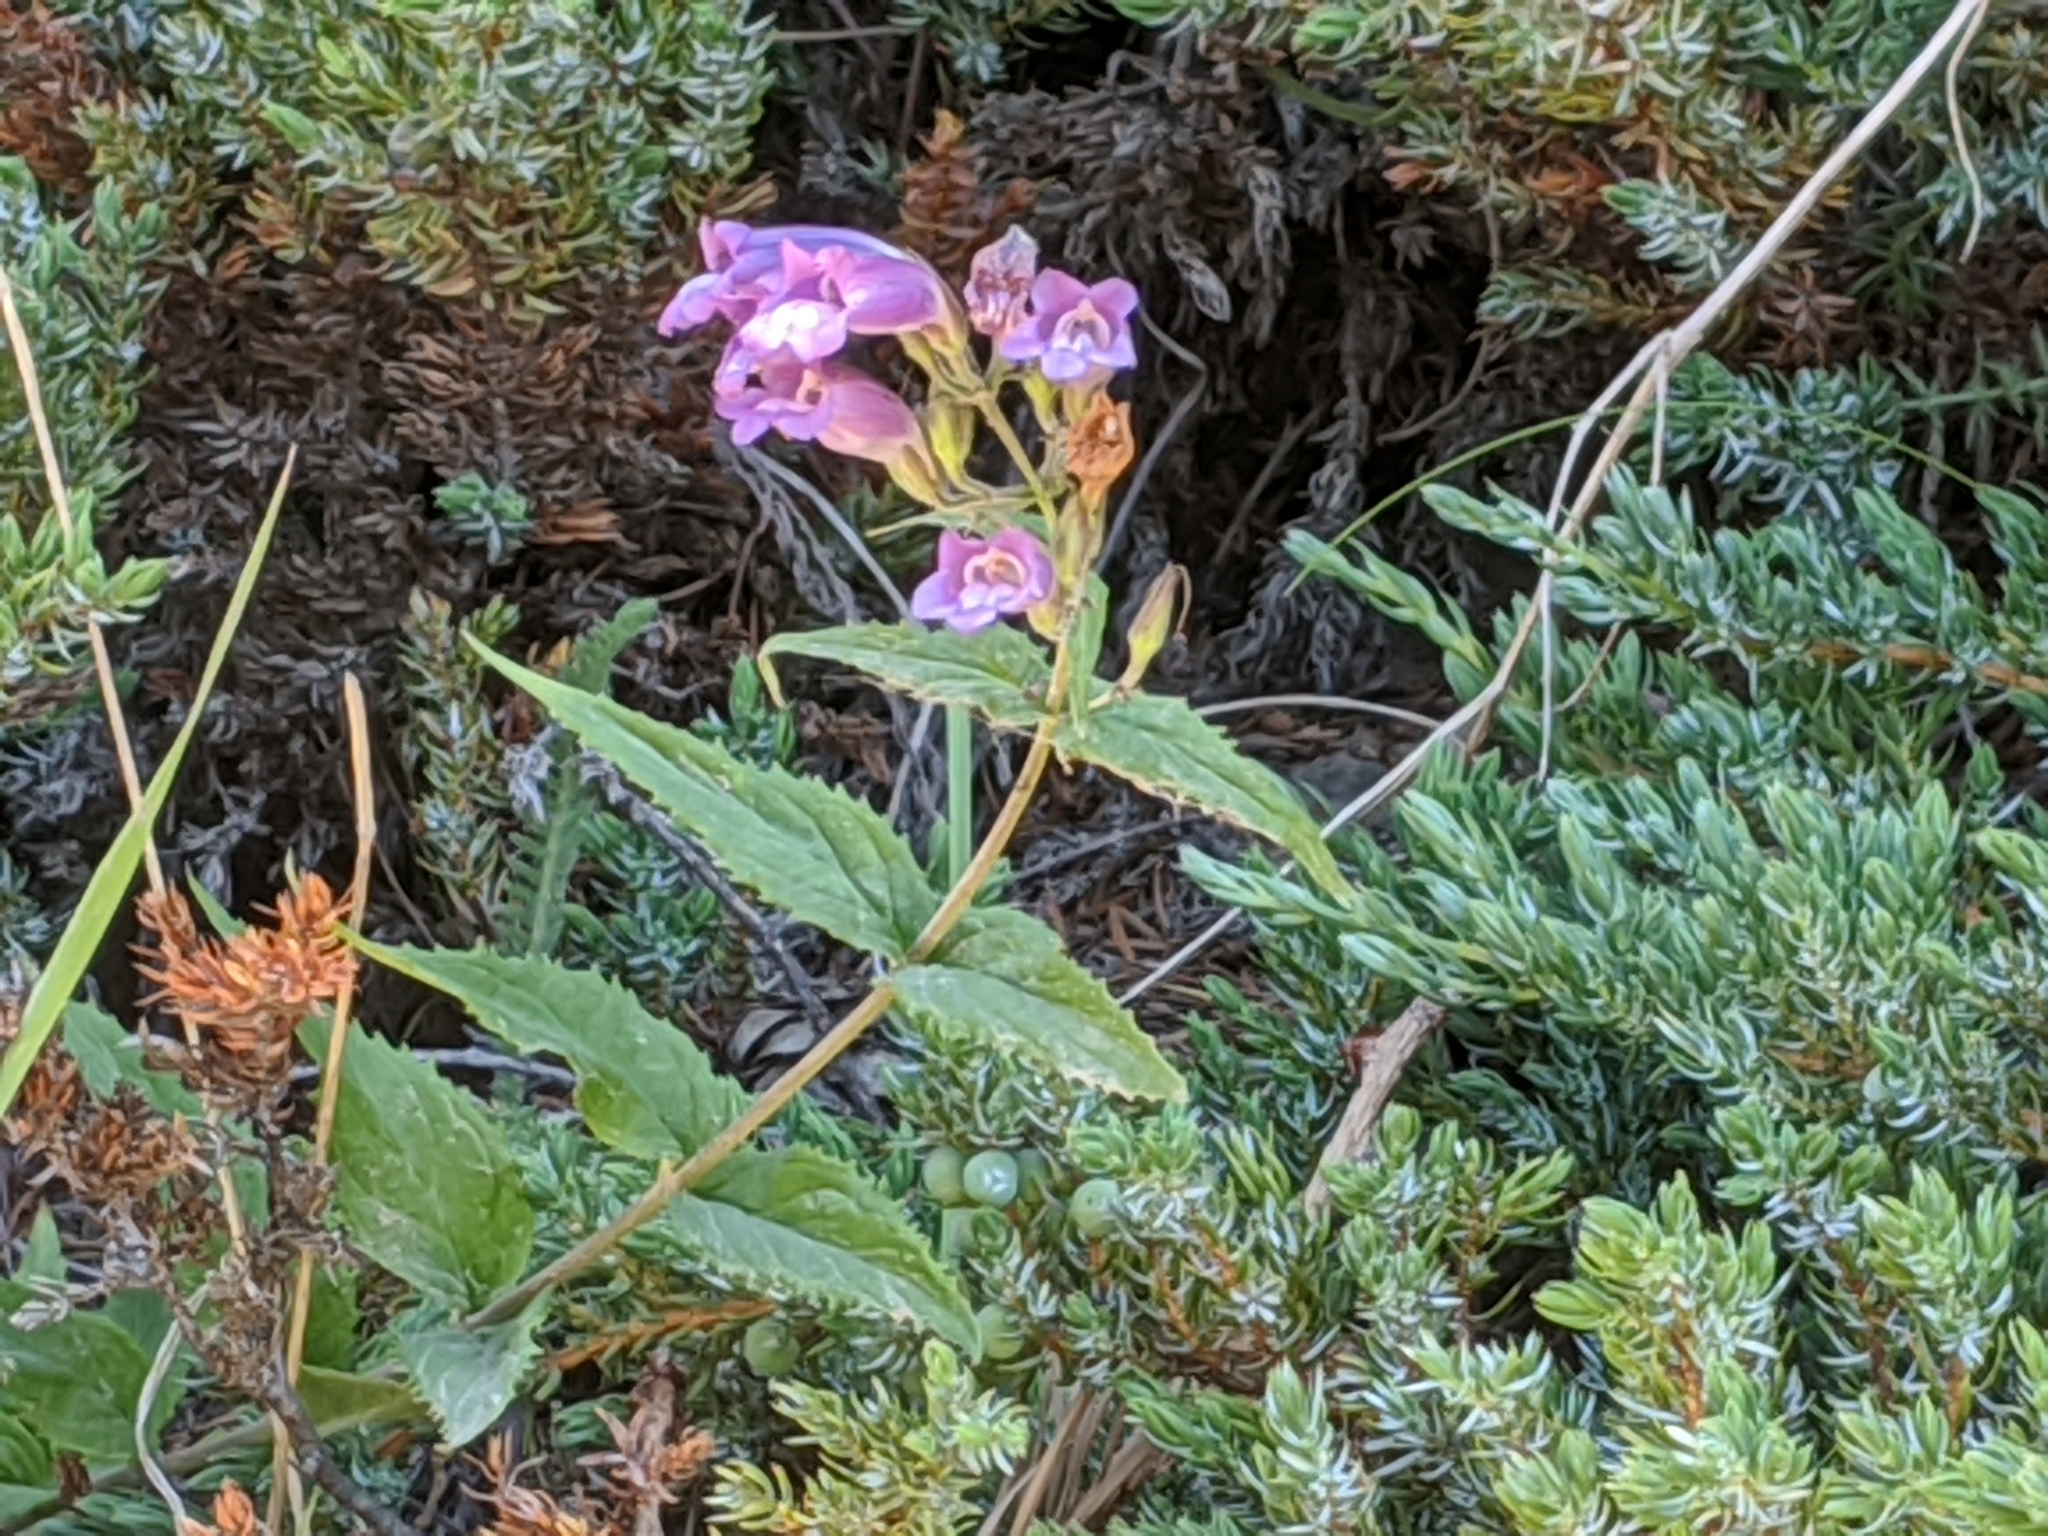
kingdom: Plantae
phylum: Tracheophyta
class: Magnoliopsida
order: Lamiales
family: Plantaginaceae
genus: Nothochelone
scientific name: Nothochelone nemorosa
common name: Woodland beardtongue
